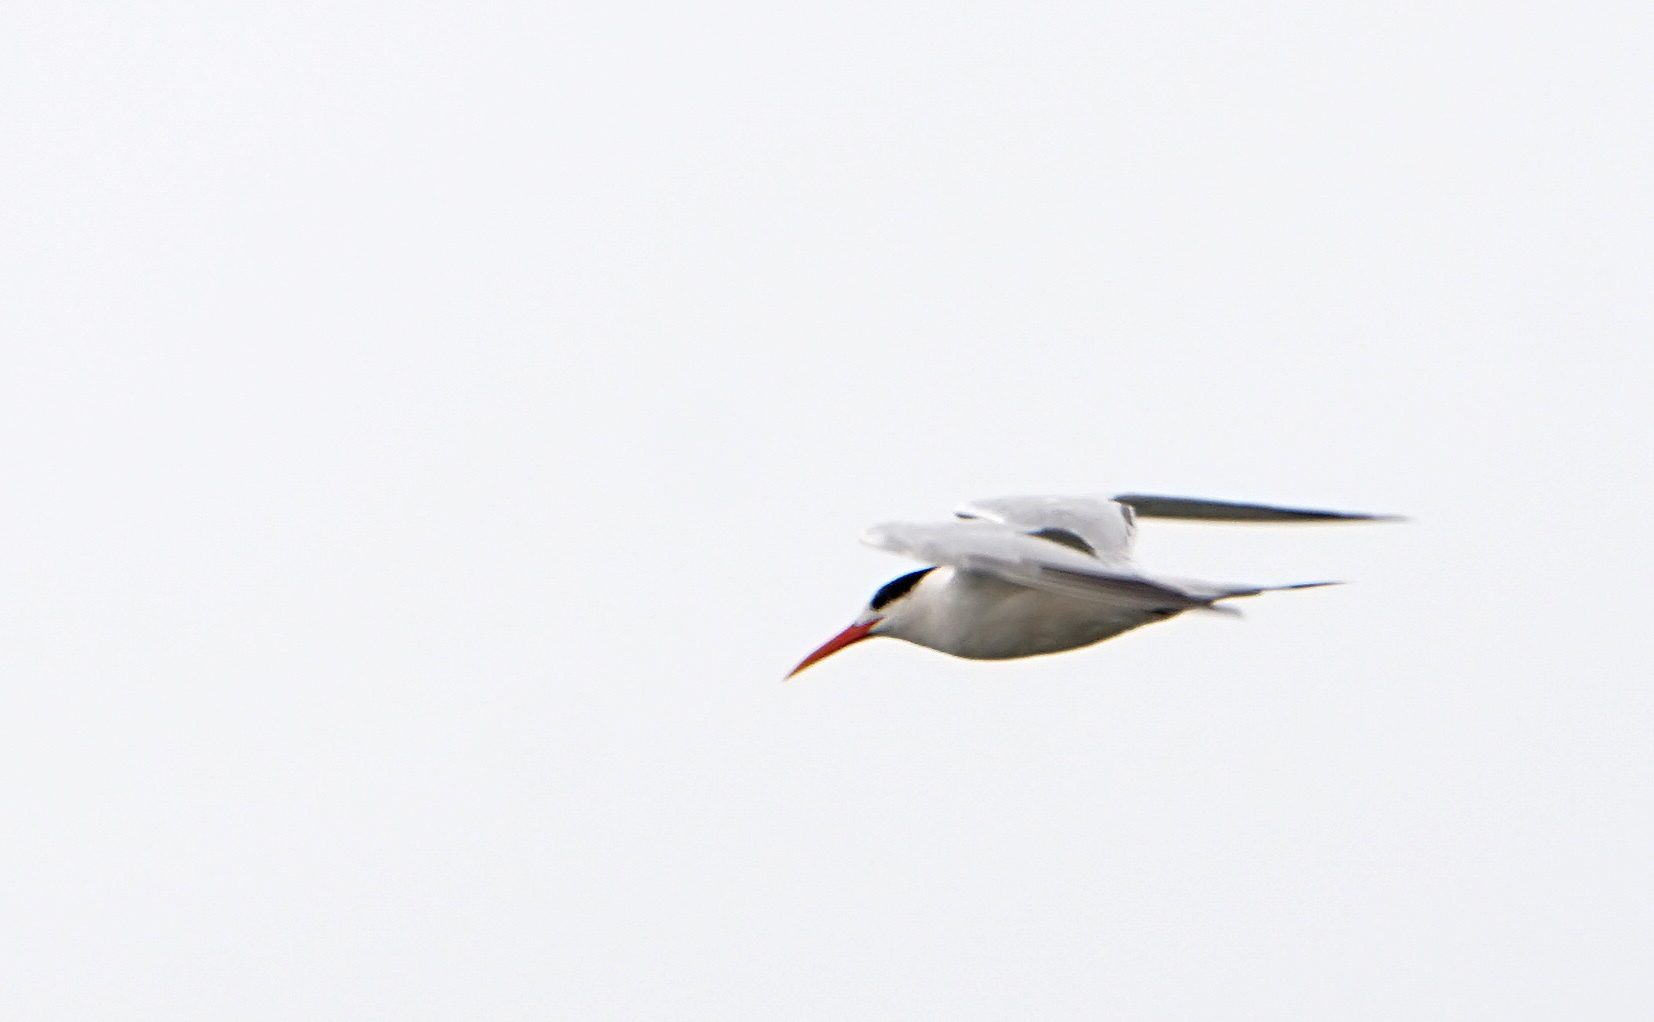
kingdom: Animalia
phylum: Chordata
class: Aves
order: Charadriiformes
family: Laridae
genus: Thalasseus
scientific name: Thalasseus elegans
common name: Elegant tern
